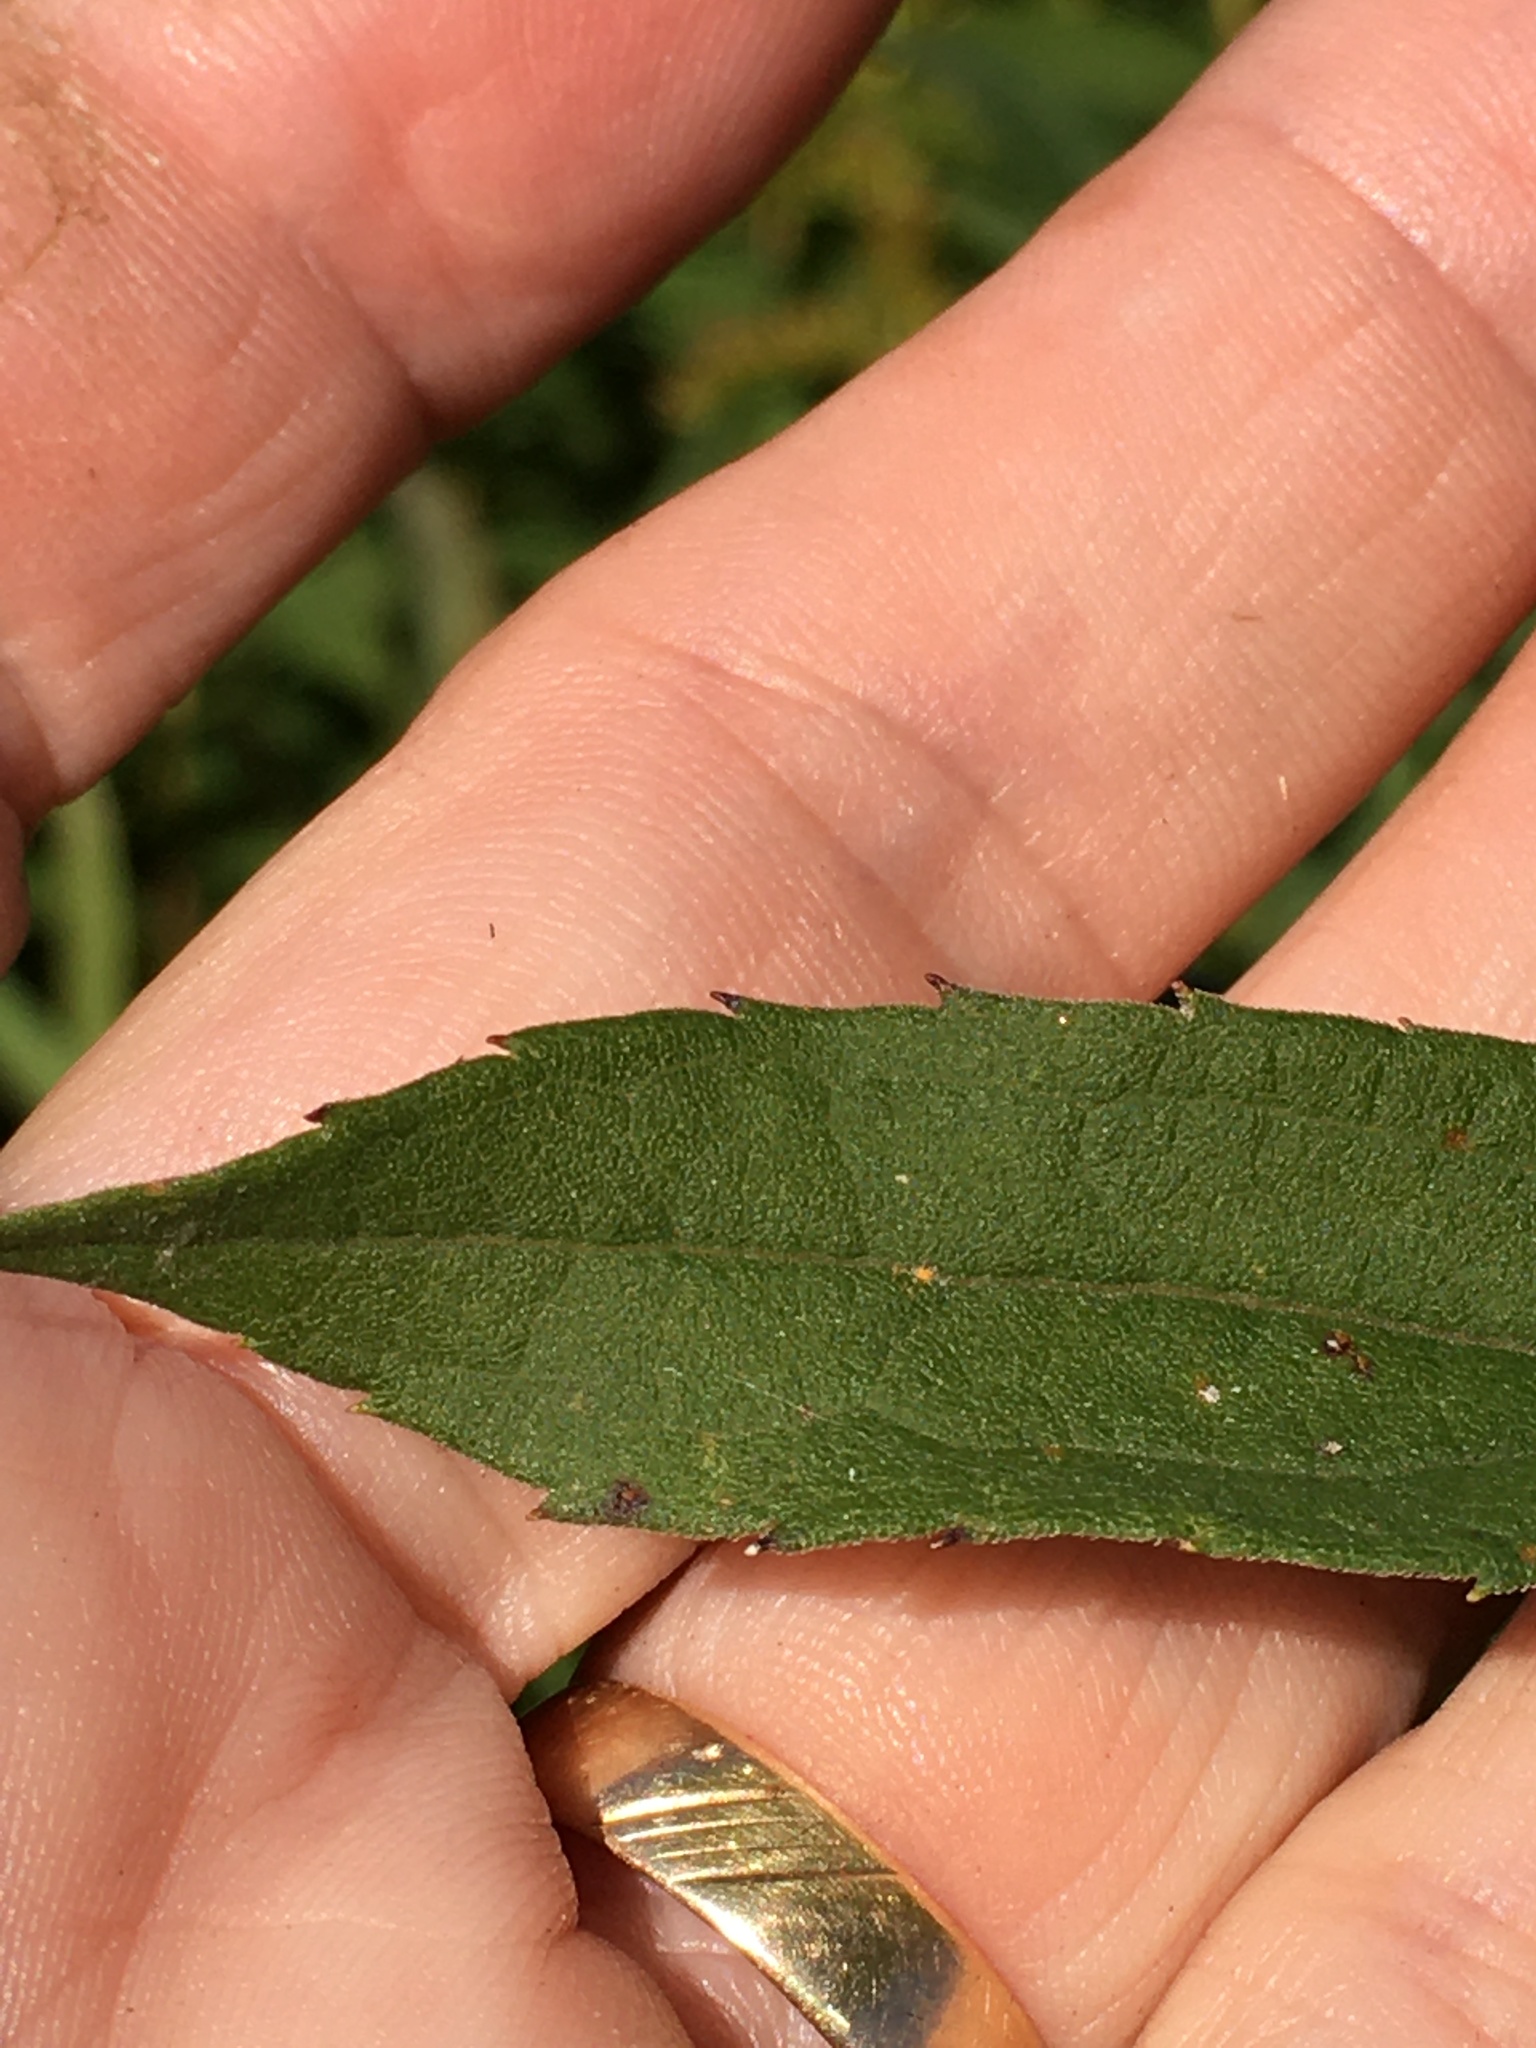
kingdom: Plantae
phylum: Tracheophyta
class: Magnoliopsida
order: Asterales
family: Asteraceae
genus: Solidago
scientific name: Solidago altissima
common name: Late goldenrod
